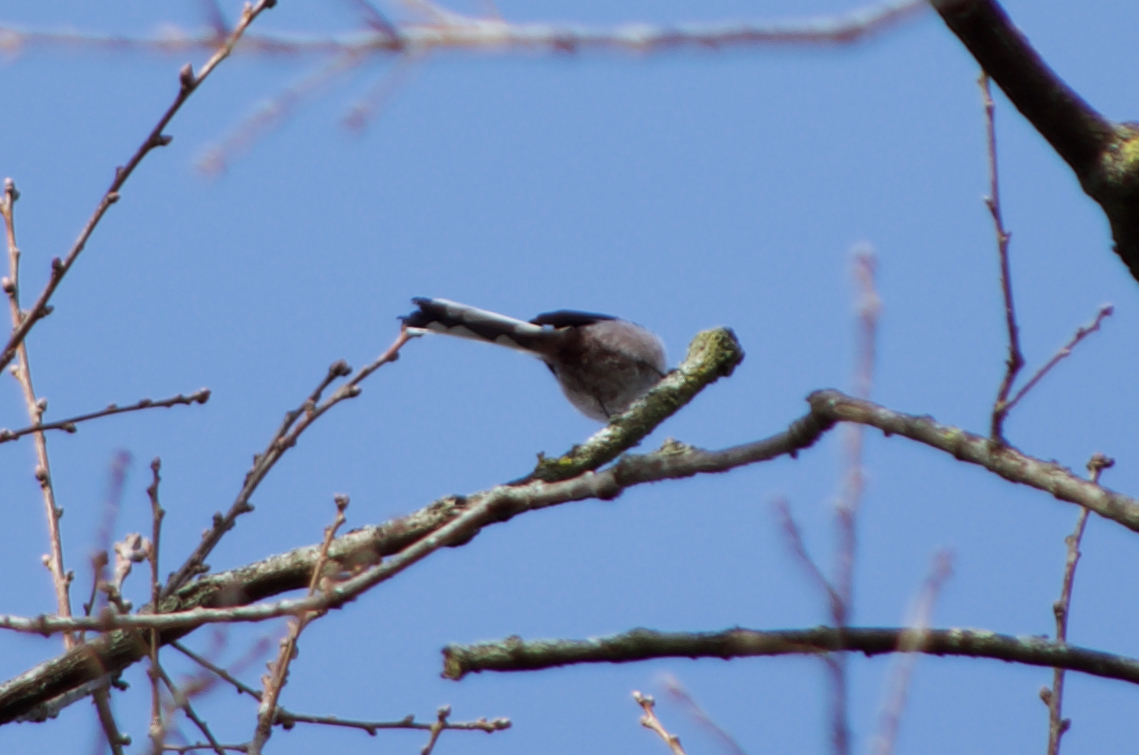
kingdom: Animalia
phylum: Chordata
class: Aves
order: Passeriformes
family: Aegithalidae
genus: Aegithalos
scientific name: Aegithalos caudatus
